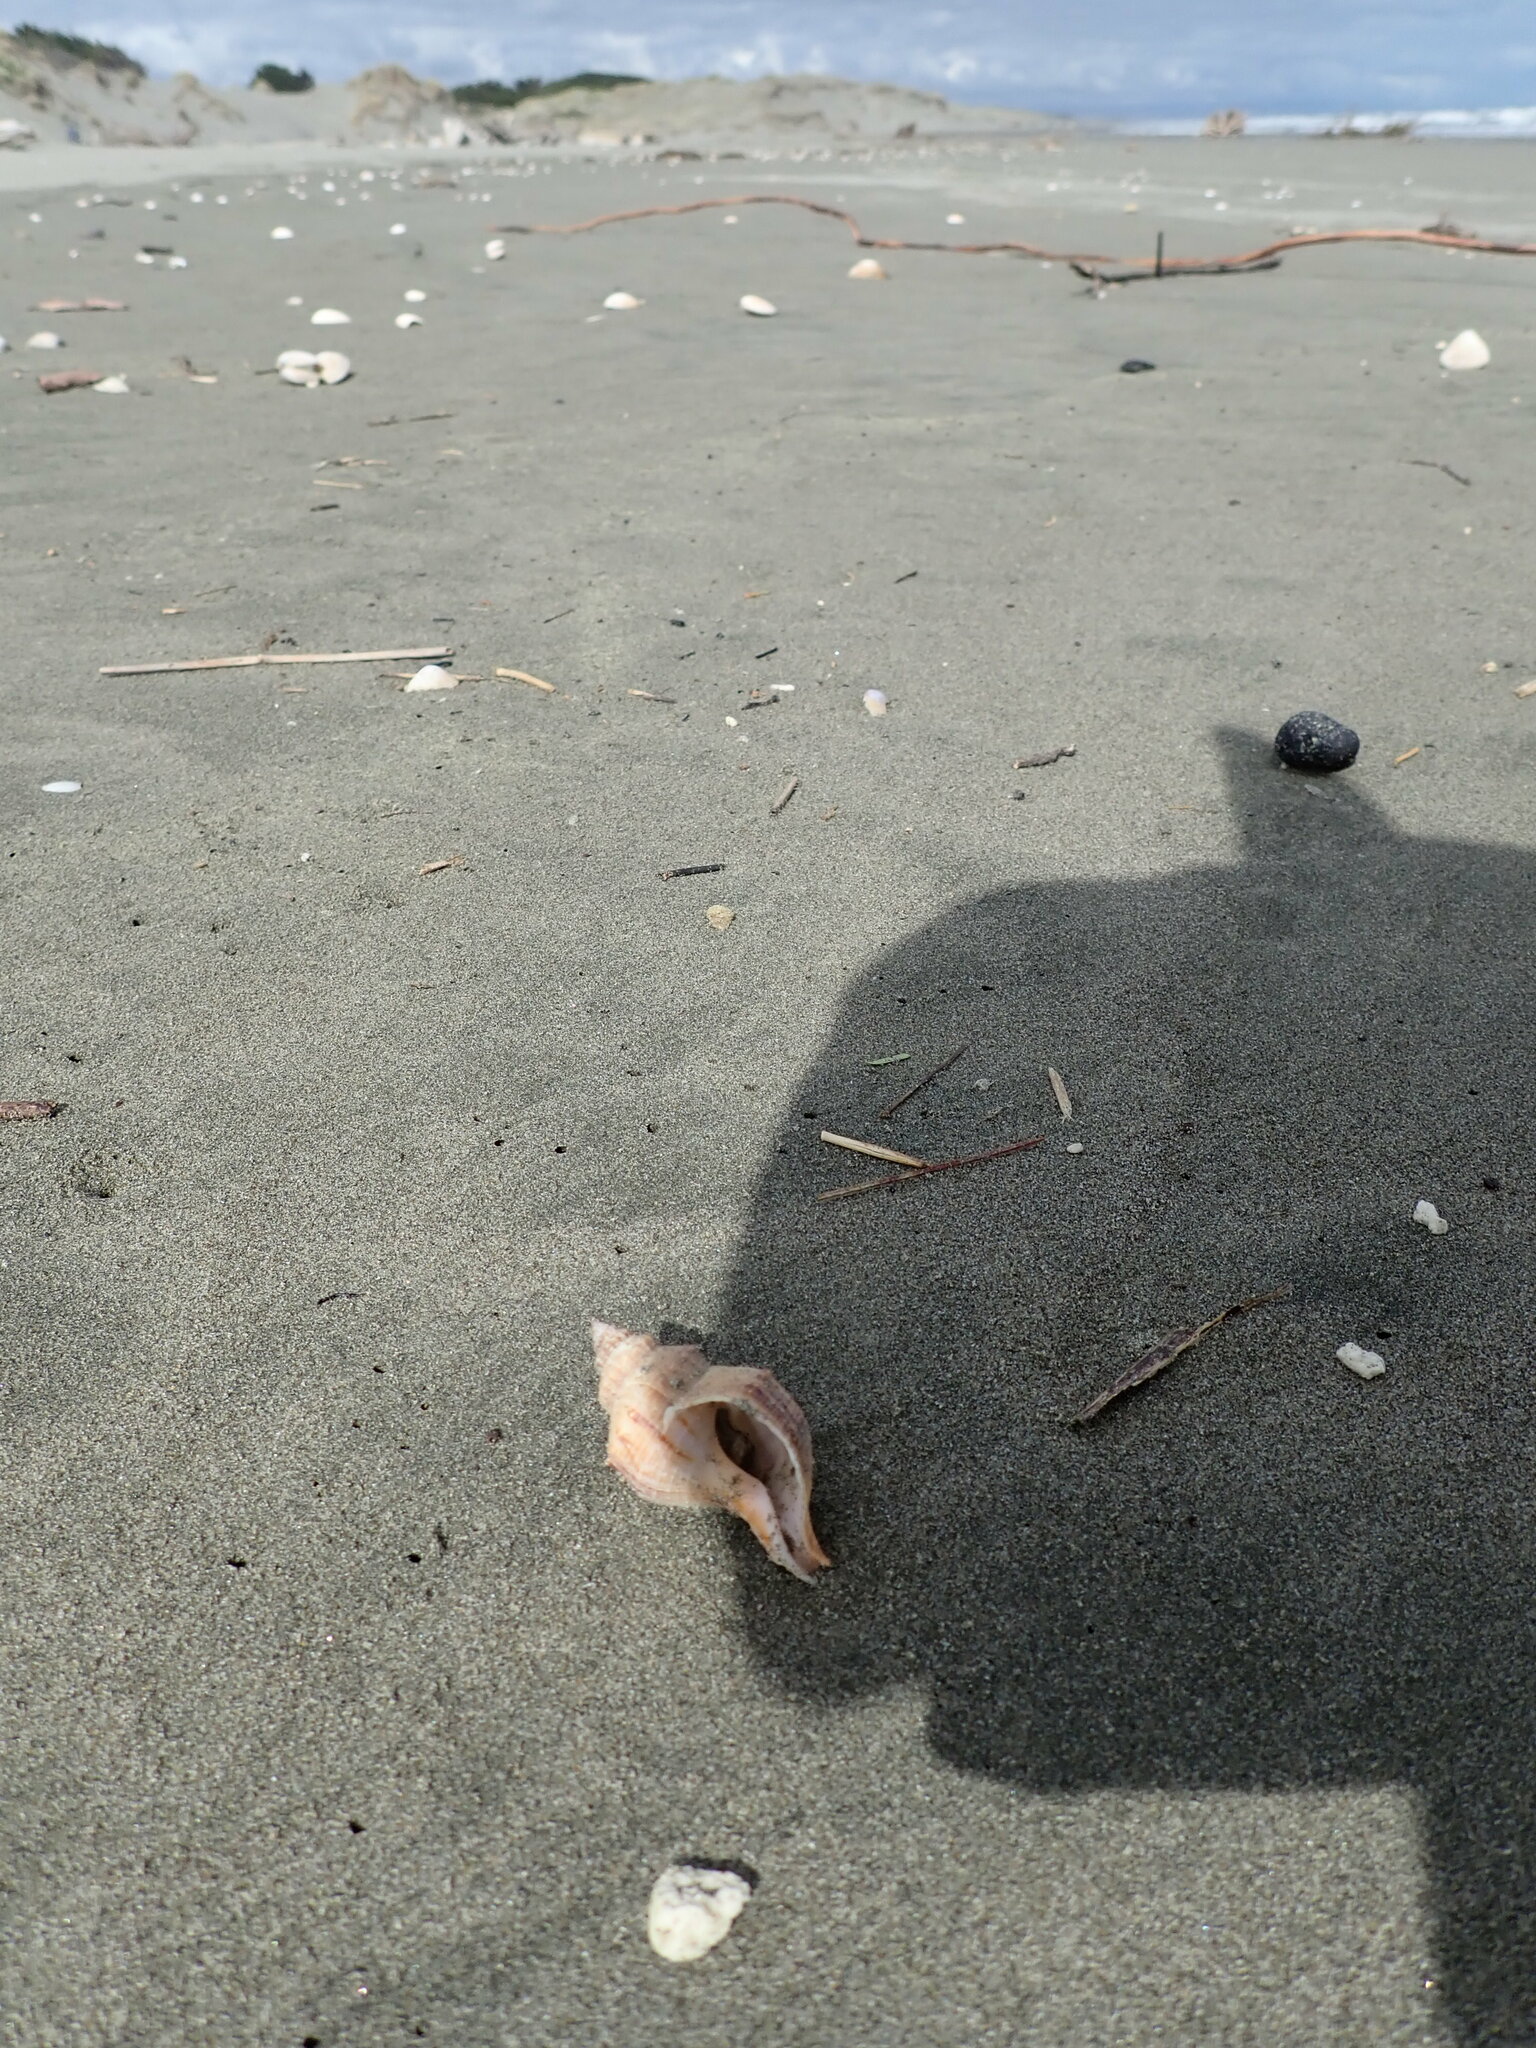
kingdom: Animalia
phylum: Mollusca
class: Gastropoda
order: Neogastropoda
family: Prosiphonidae
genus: Austrofusus
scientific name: Austrofusus glans
